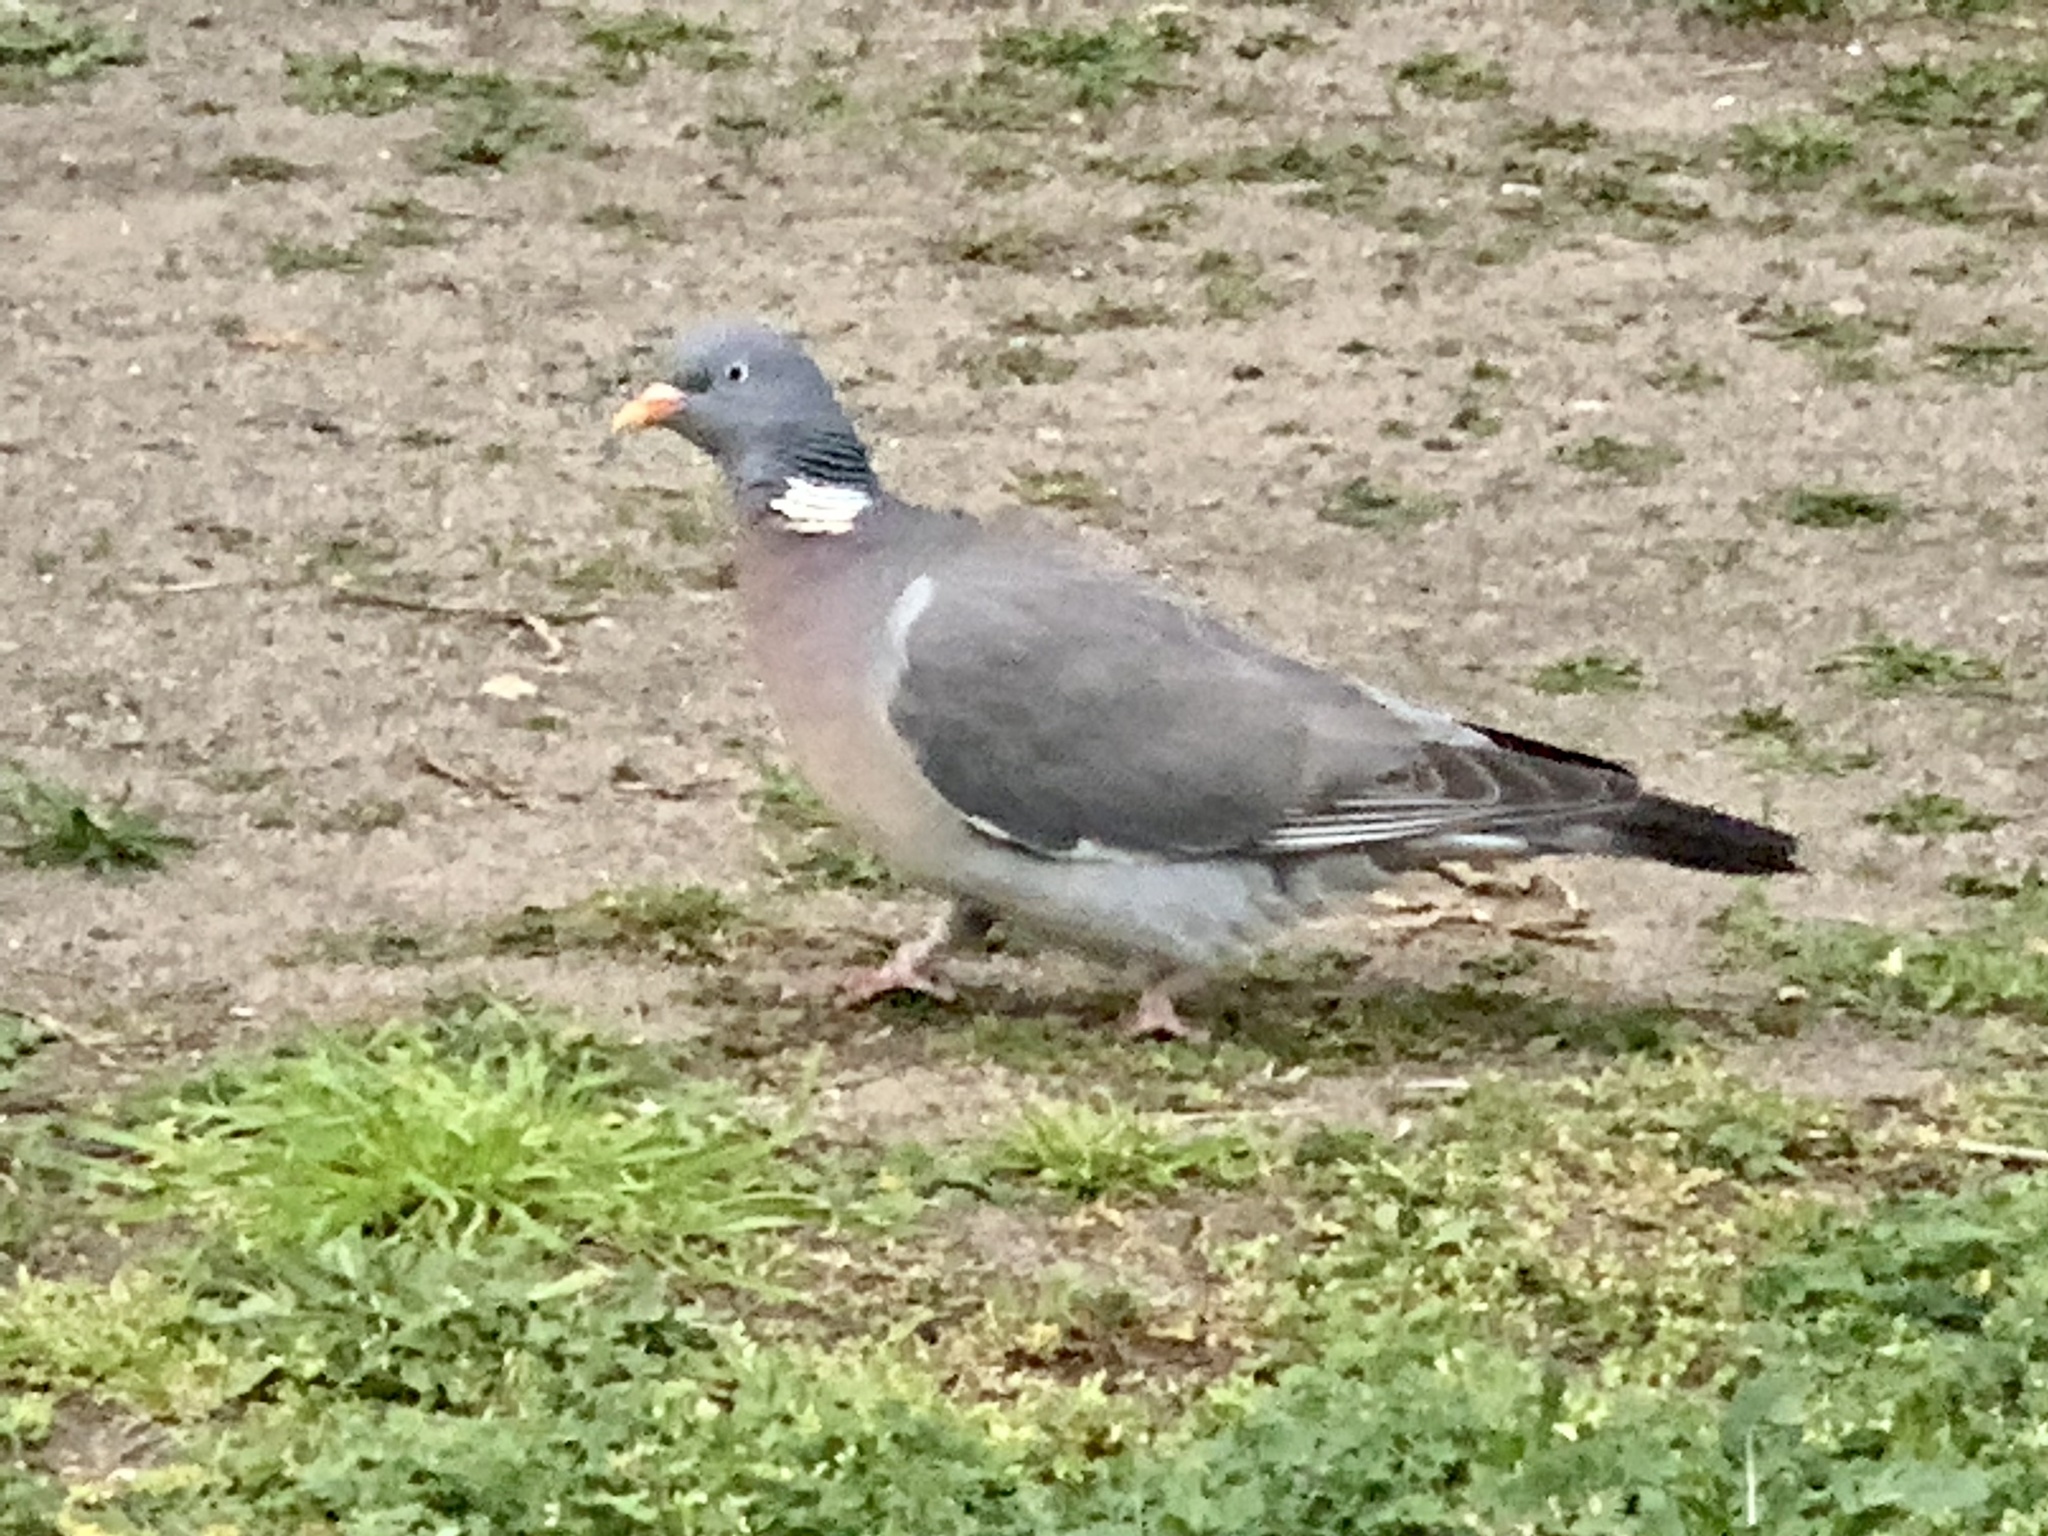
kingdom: Animalia
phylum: Chordata
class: Aves
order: Columbiformes
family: Columbidae
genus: Columba
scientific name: Columba palumbus
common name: Common wood pigeon
